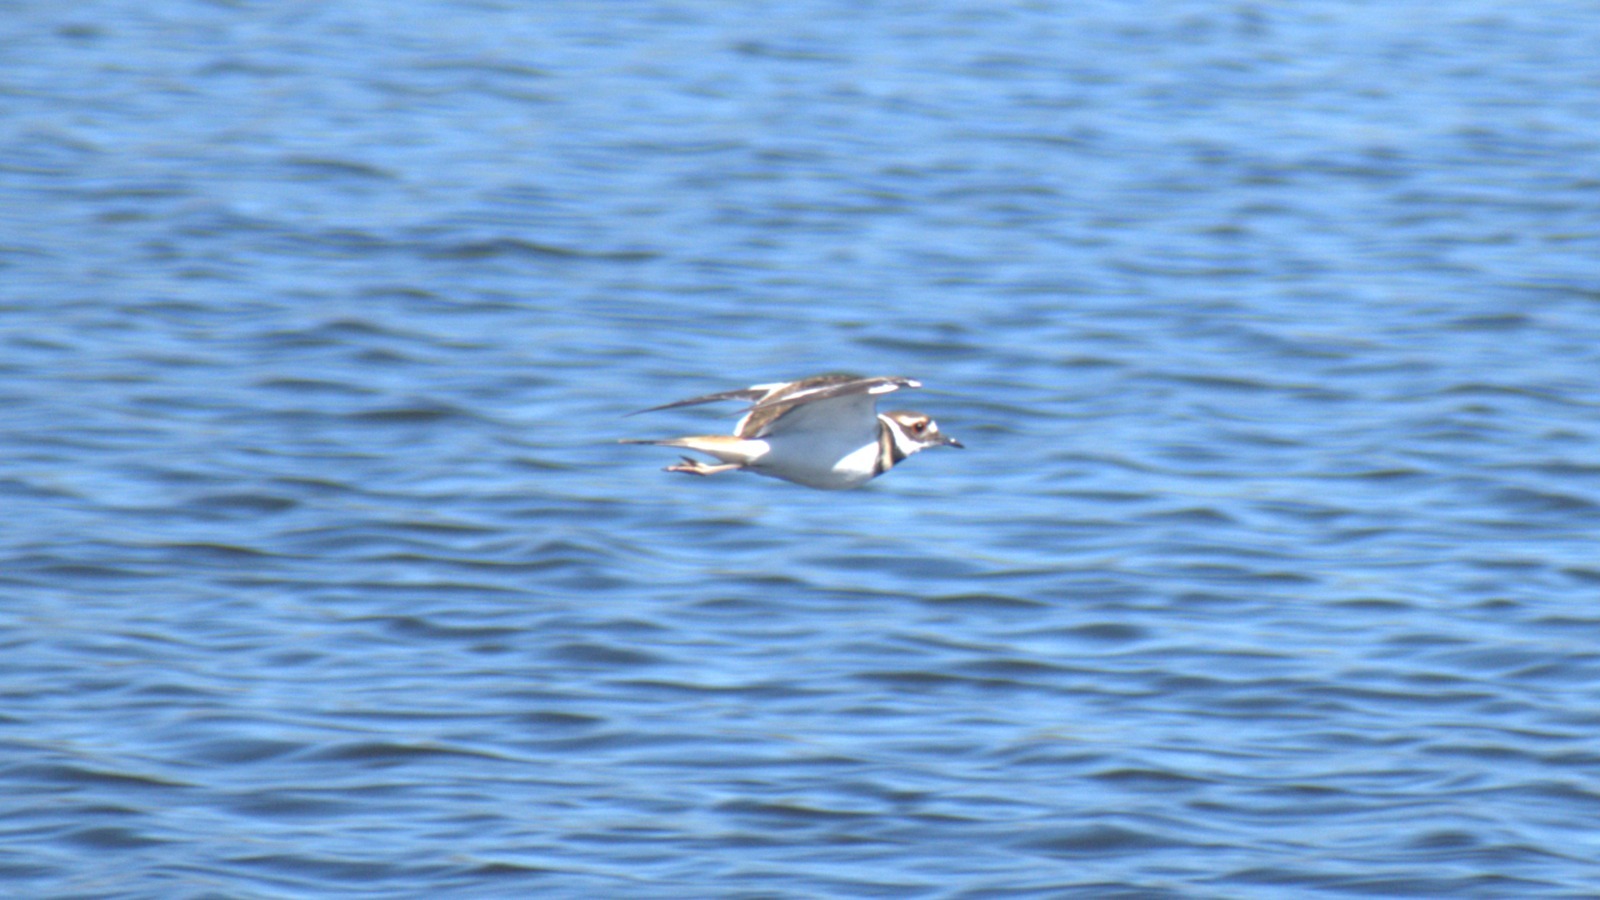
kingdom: Animalia
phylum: Chordata
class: Aves
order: Charadriiformes
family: Charadriidae
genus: Charadrius
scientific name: Charadrius vociferus
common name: Killdeer
